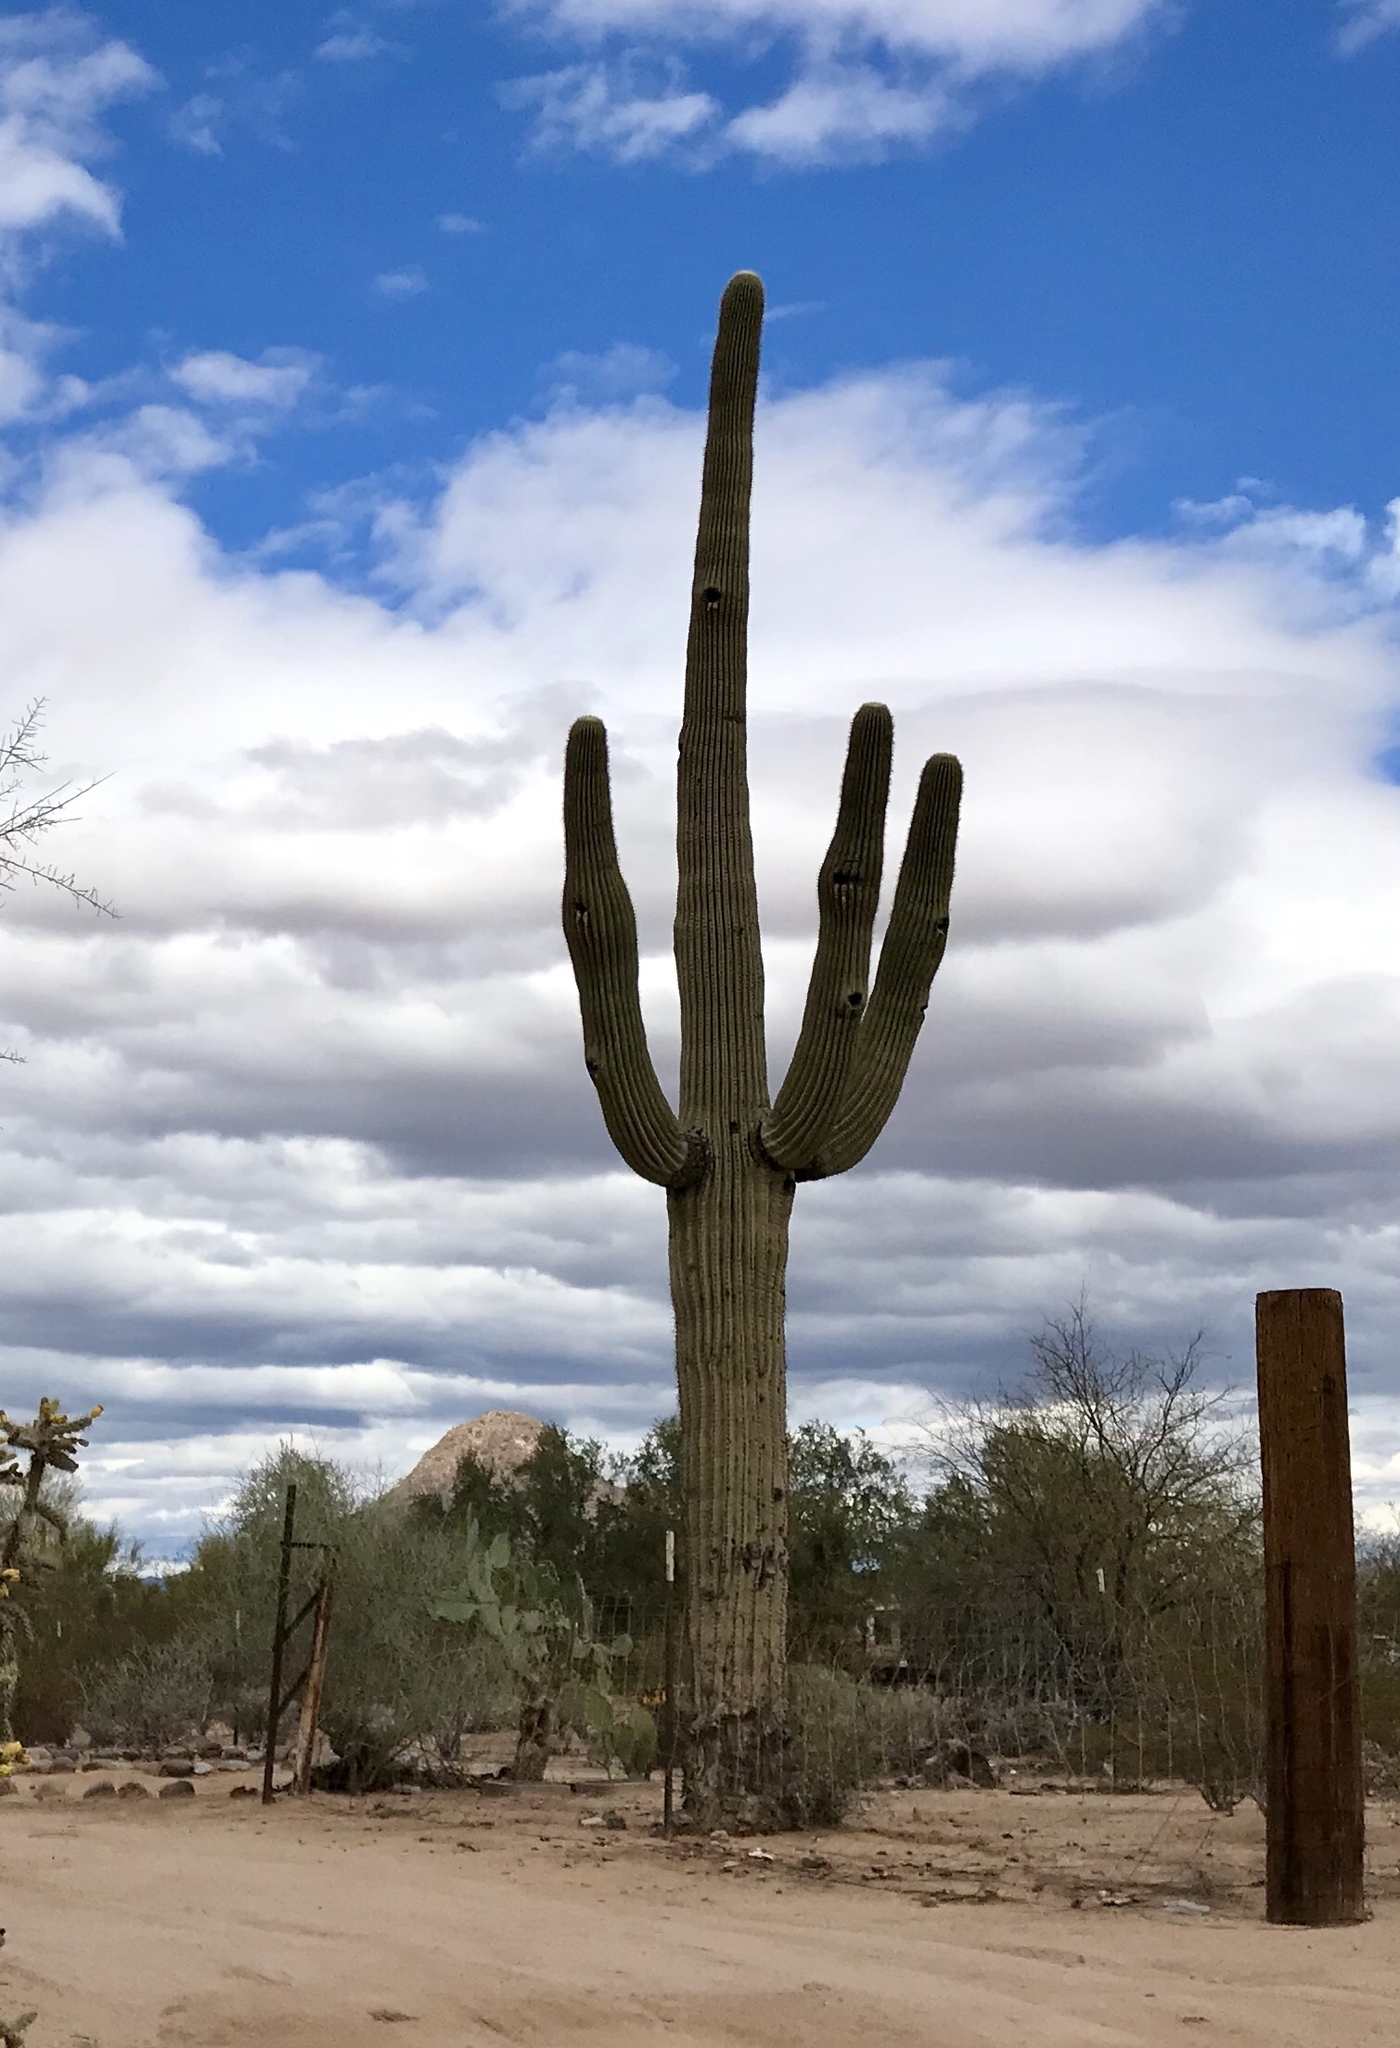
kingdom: Plantae
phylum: Tracheophyta
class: Magnoliopsida
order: Caryophyllales
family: Cactaceae
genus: Carnegiea
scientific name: Carnegiea gigantea
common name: Saguaro
